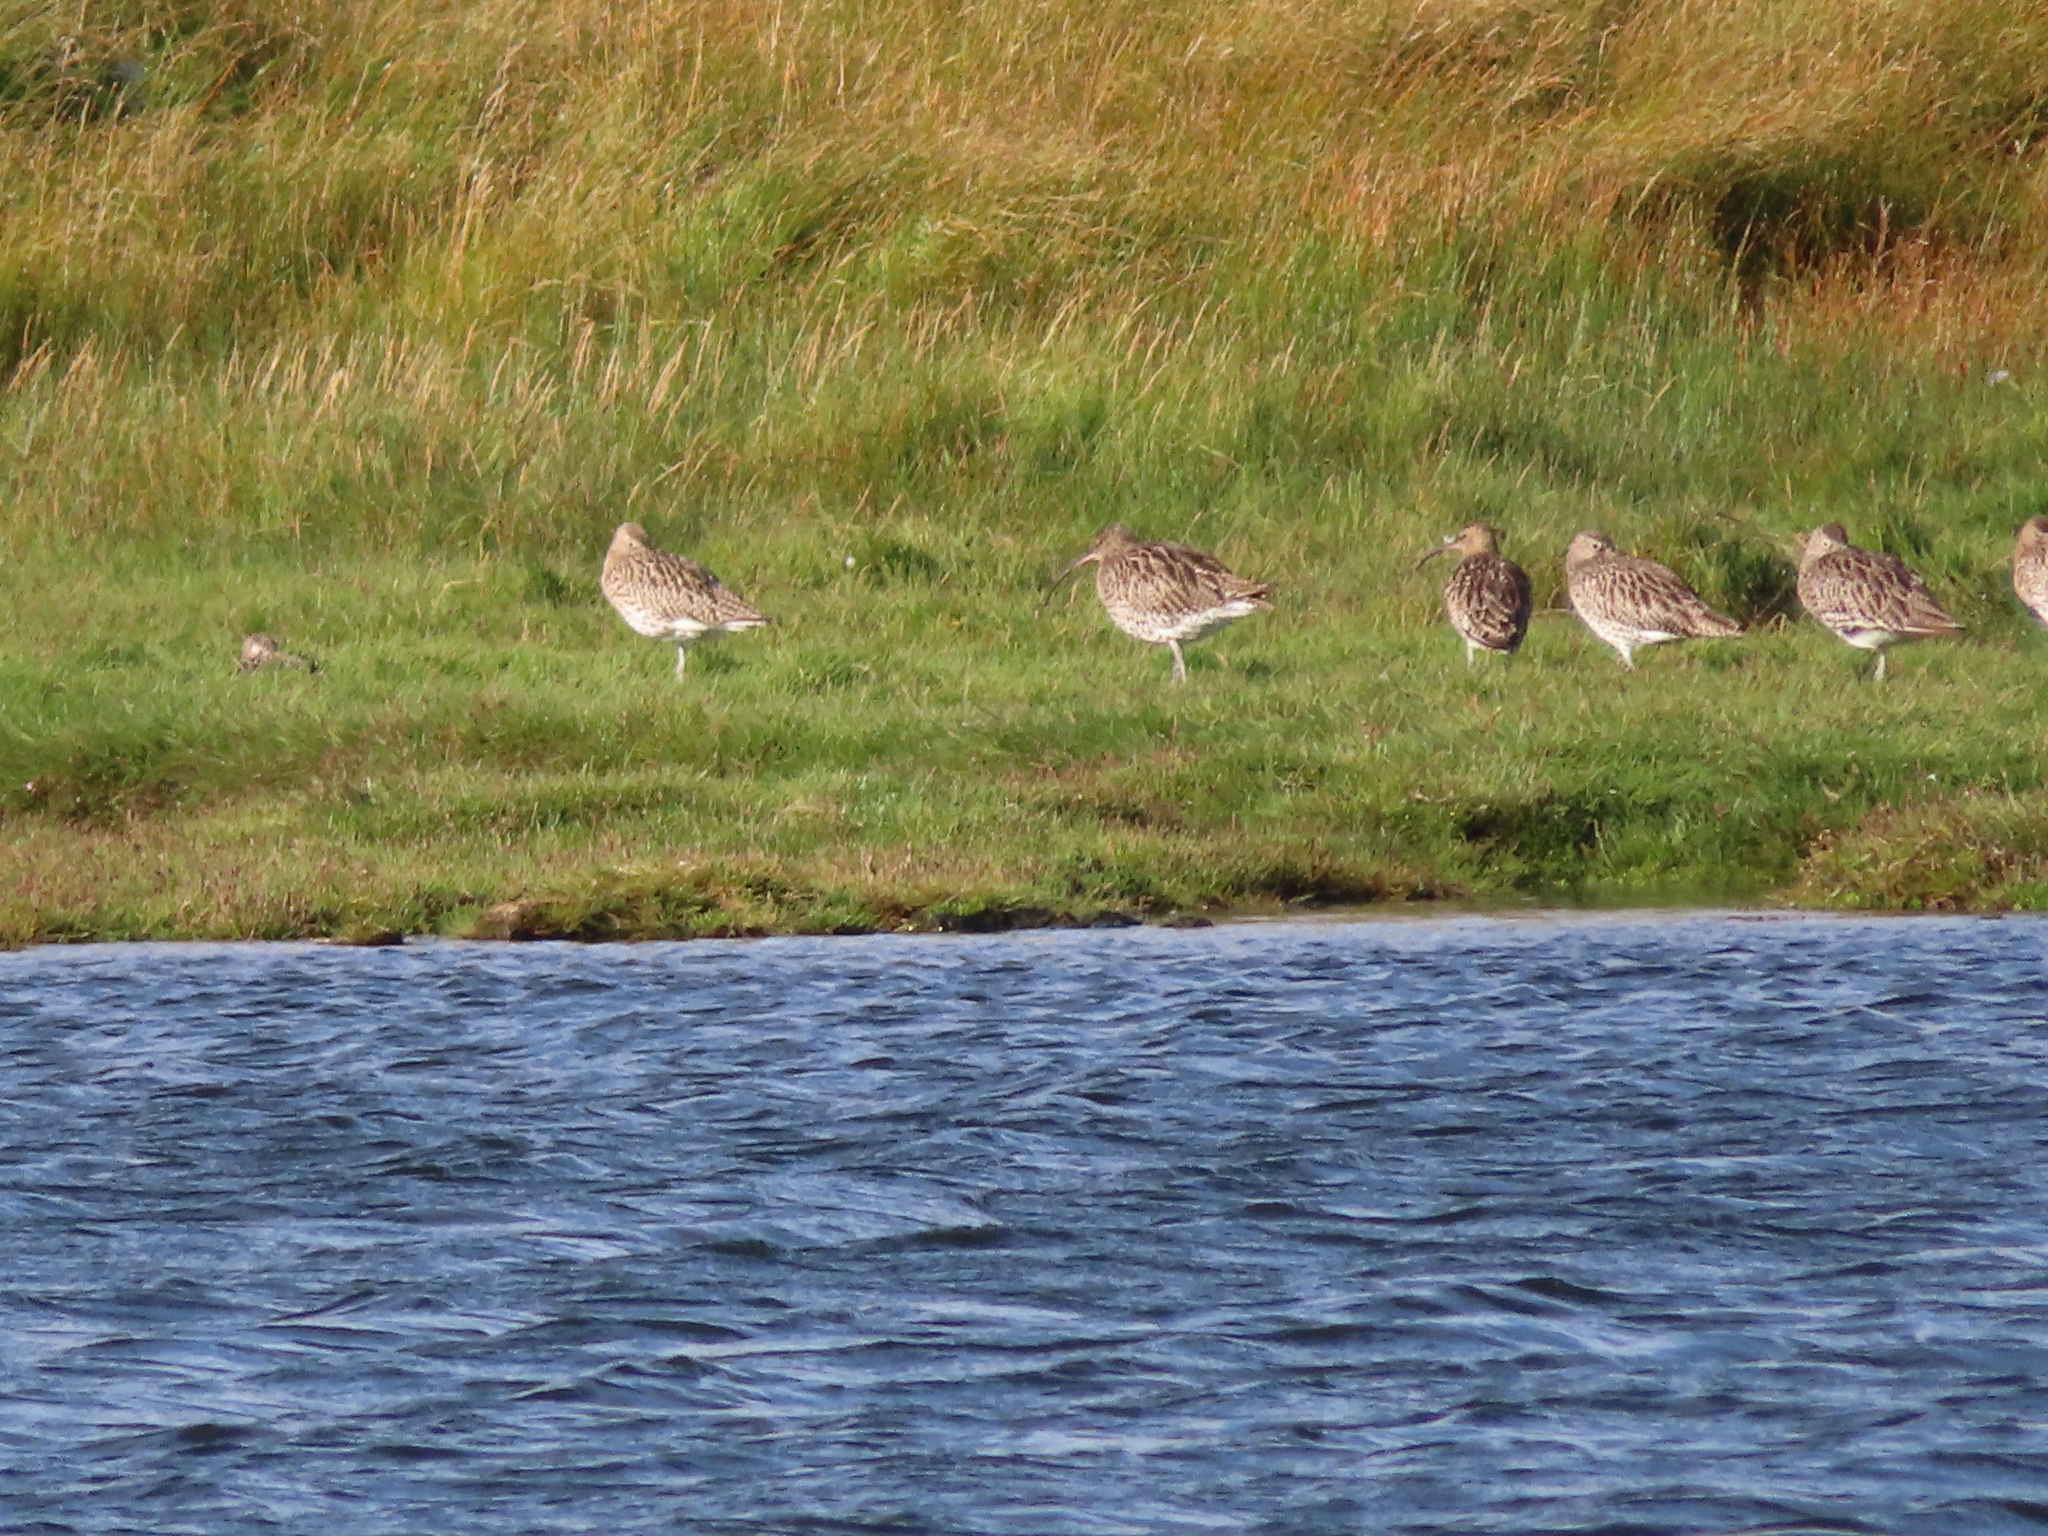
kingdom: Animalia
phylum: Chordata
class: Aves
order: Charadriiformes
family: Scolopacidae
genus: Numenius
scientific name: Numenius arquata
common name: Eurasian curlew
